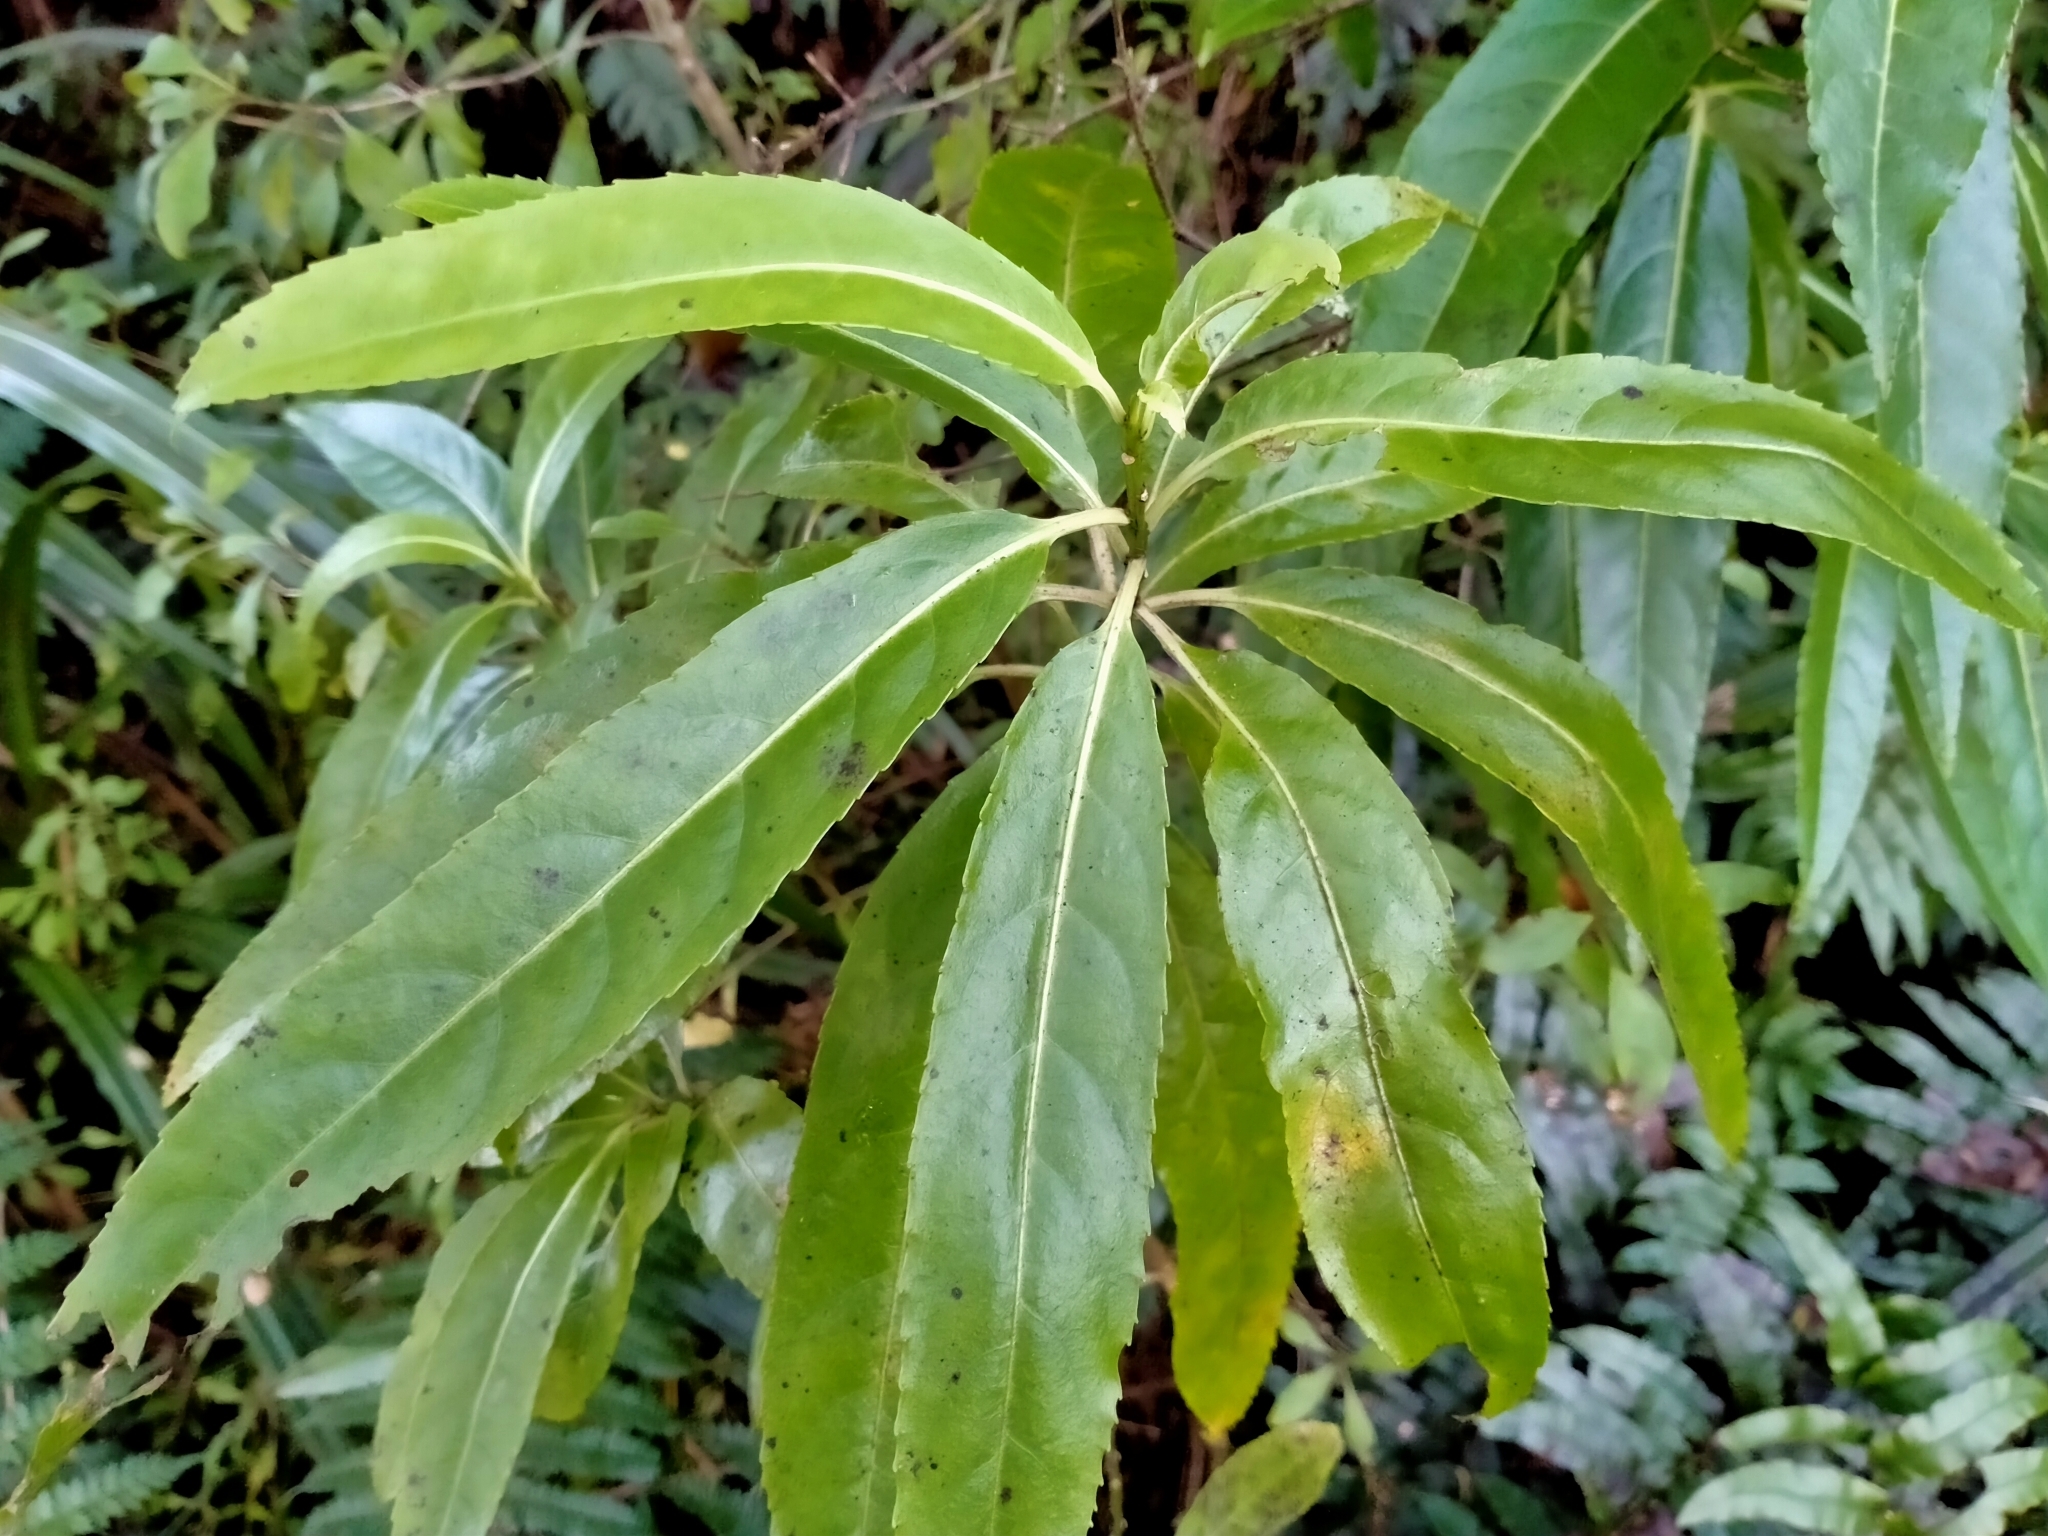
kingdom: Plantae
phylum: Tracheophyta
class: Magnoliopsida
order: Malpighiales
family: Violaceae
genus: Melicytus
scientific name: Melicytus lanceolatus
